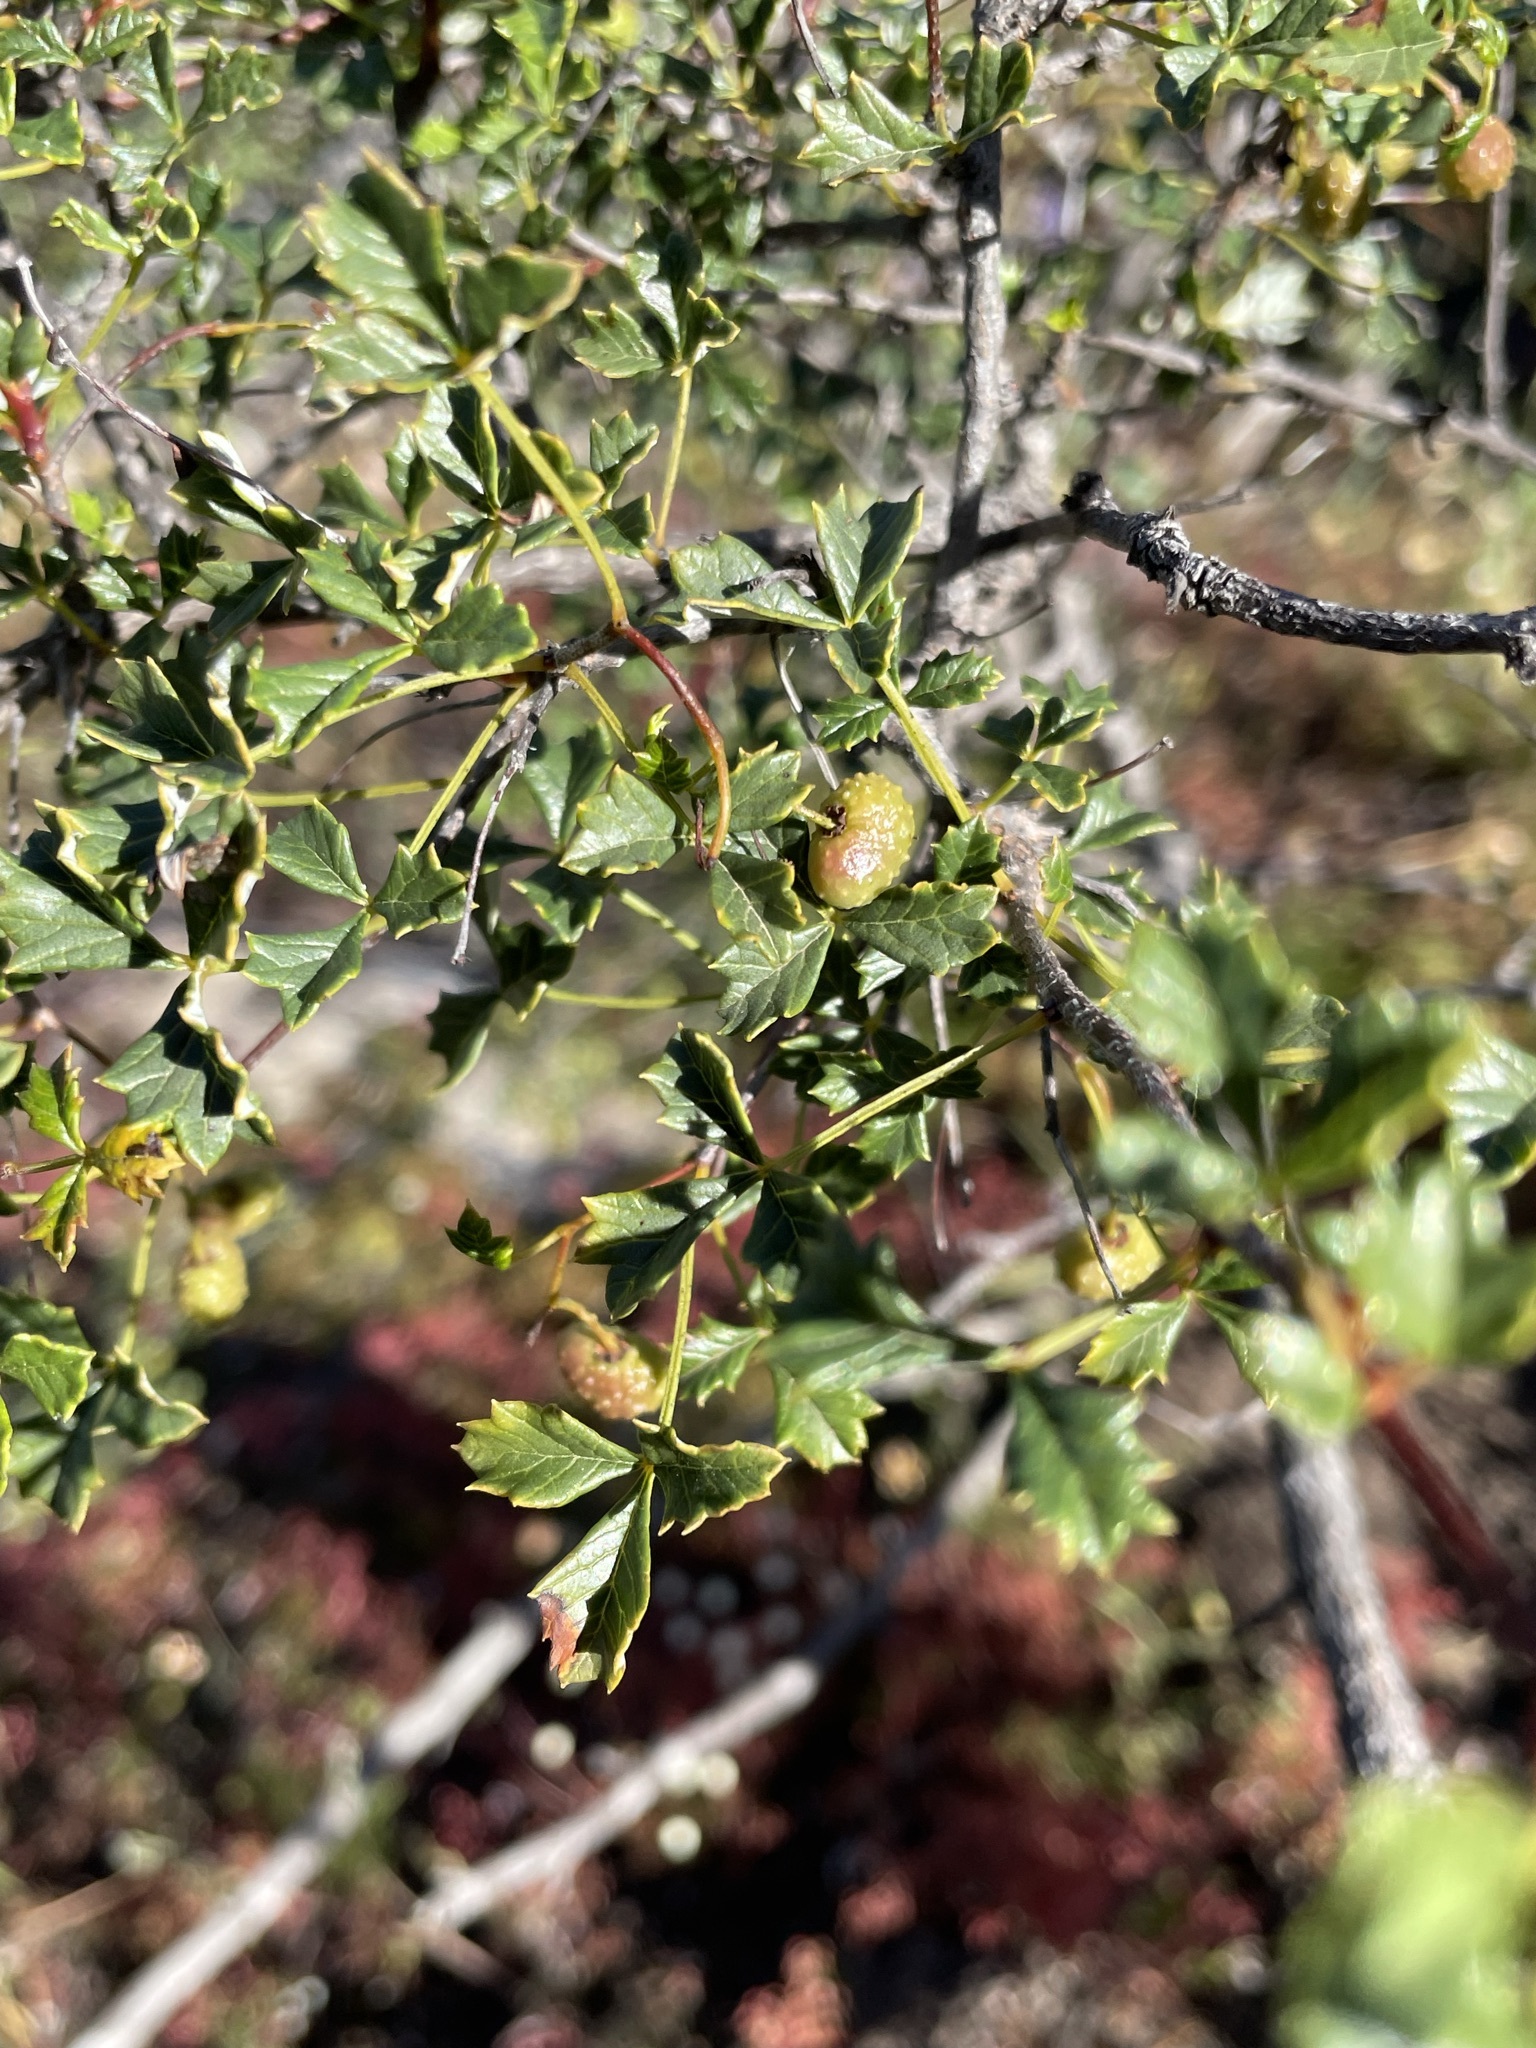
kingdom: Plantae
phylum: Tracheophyta
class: Magnoliopsida
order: Sapindales
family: Anacardiaceae
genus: Searsia
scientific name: Searsia dissecta
